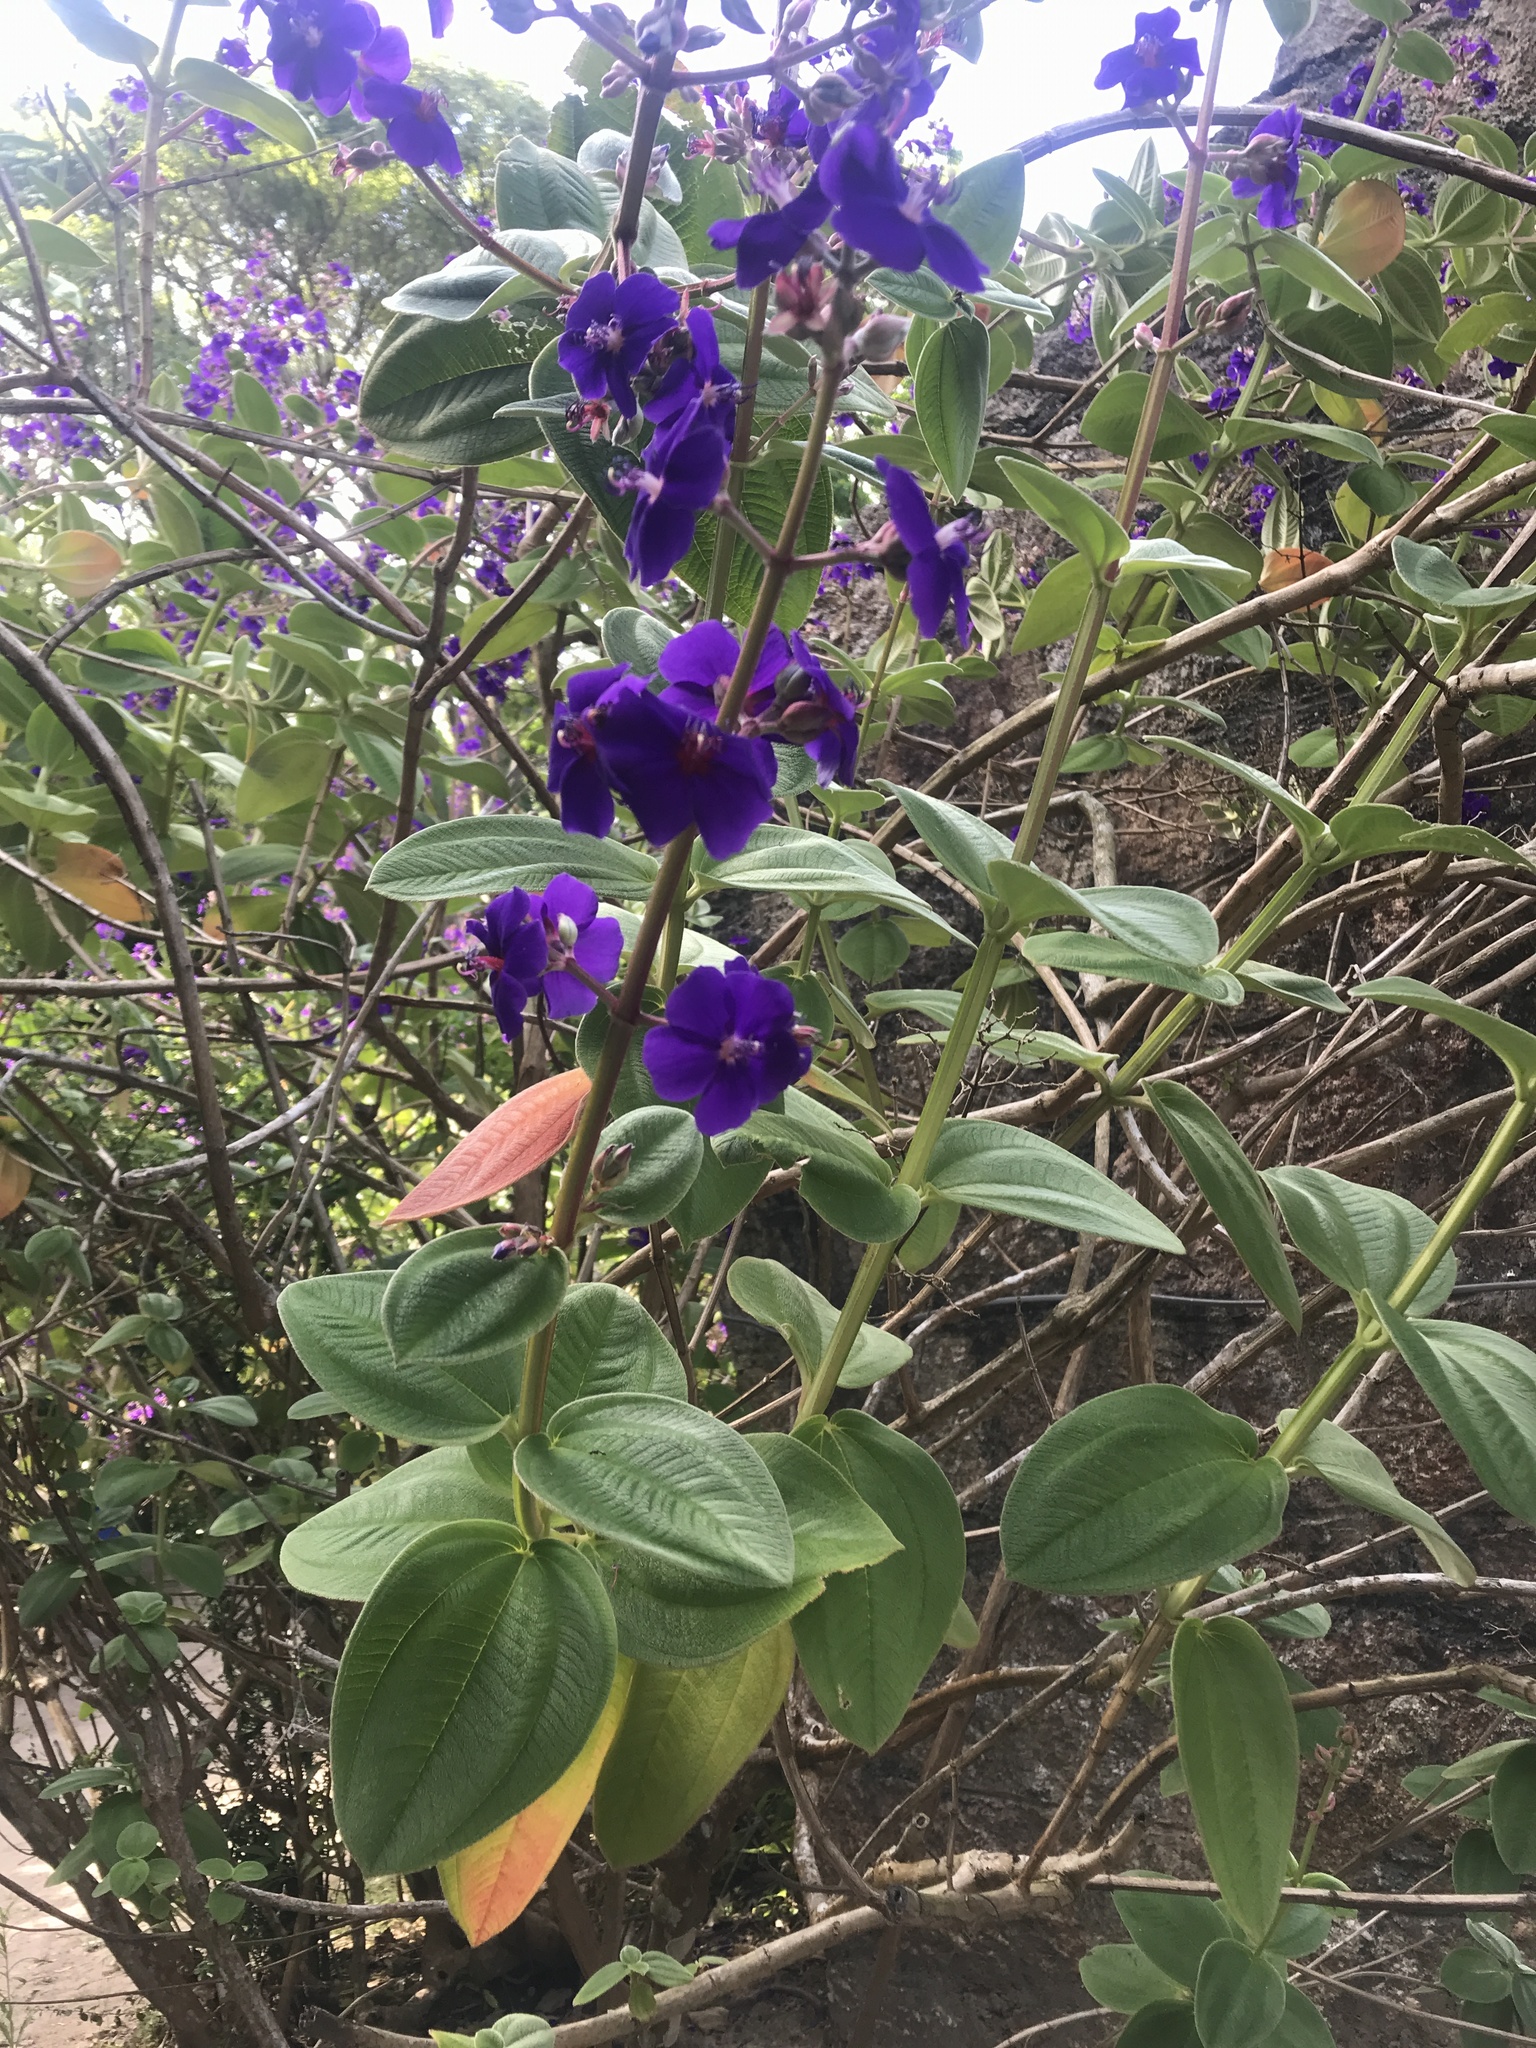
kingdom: Plantae
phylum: Tracheophyta
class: Magnoliopsida
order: Myrtales
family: Melastomataceae
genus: Pleroma
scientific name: Pleroma heteromallum
